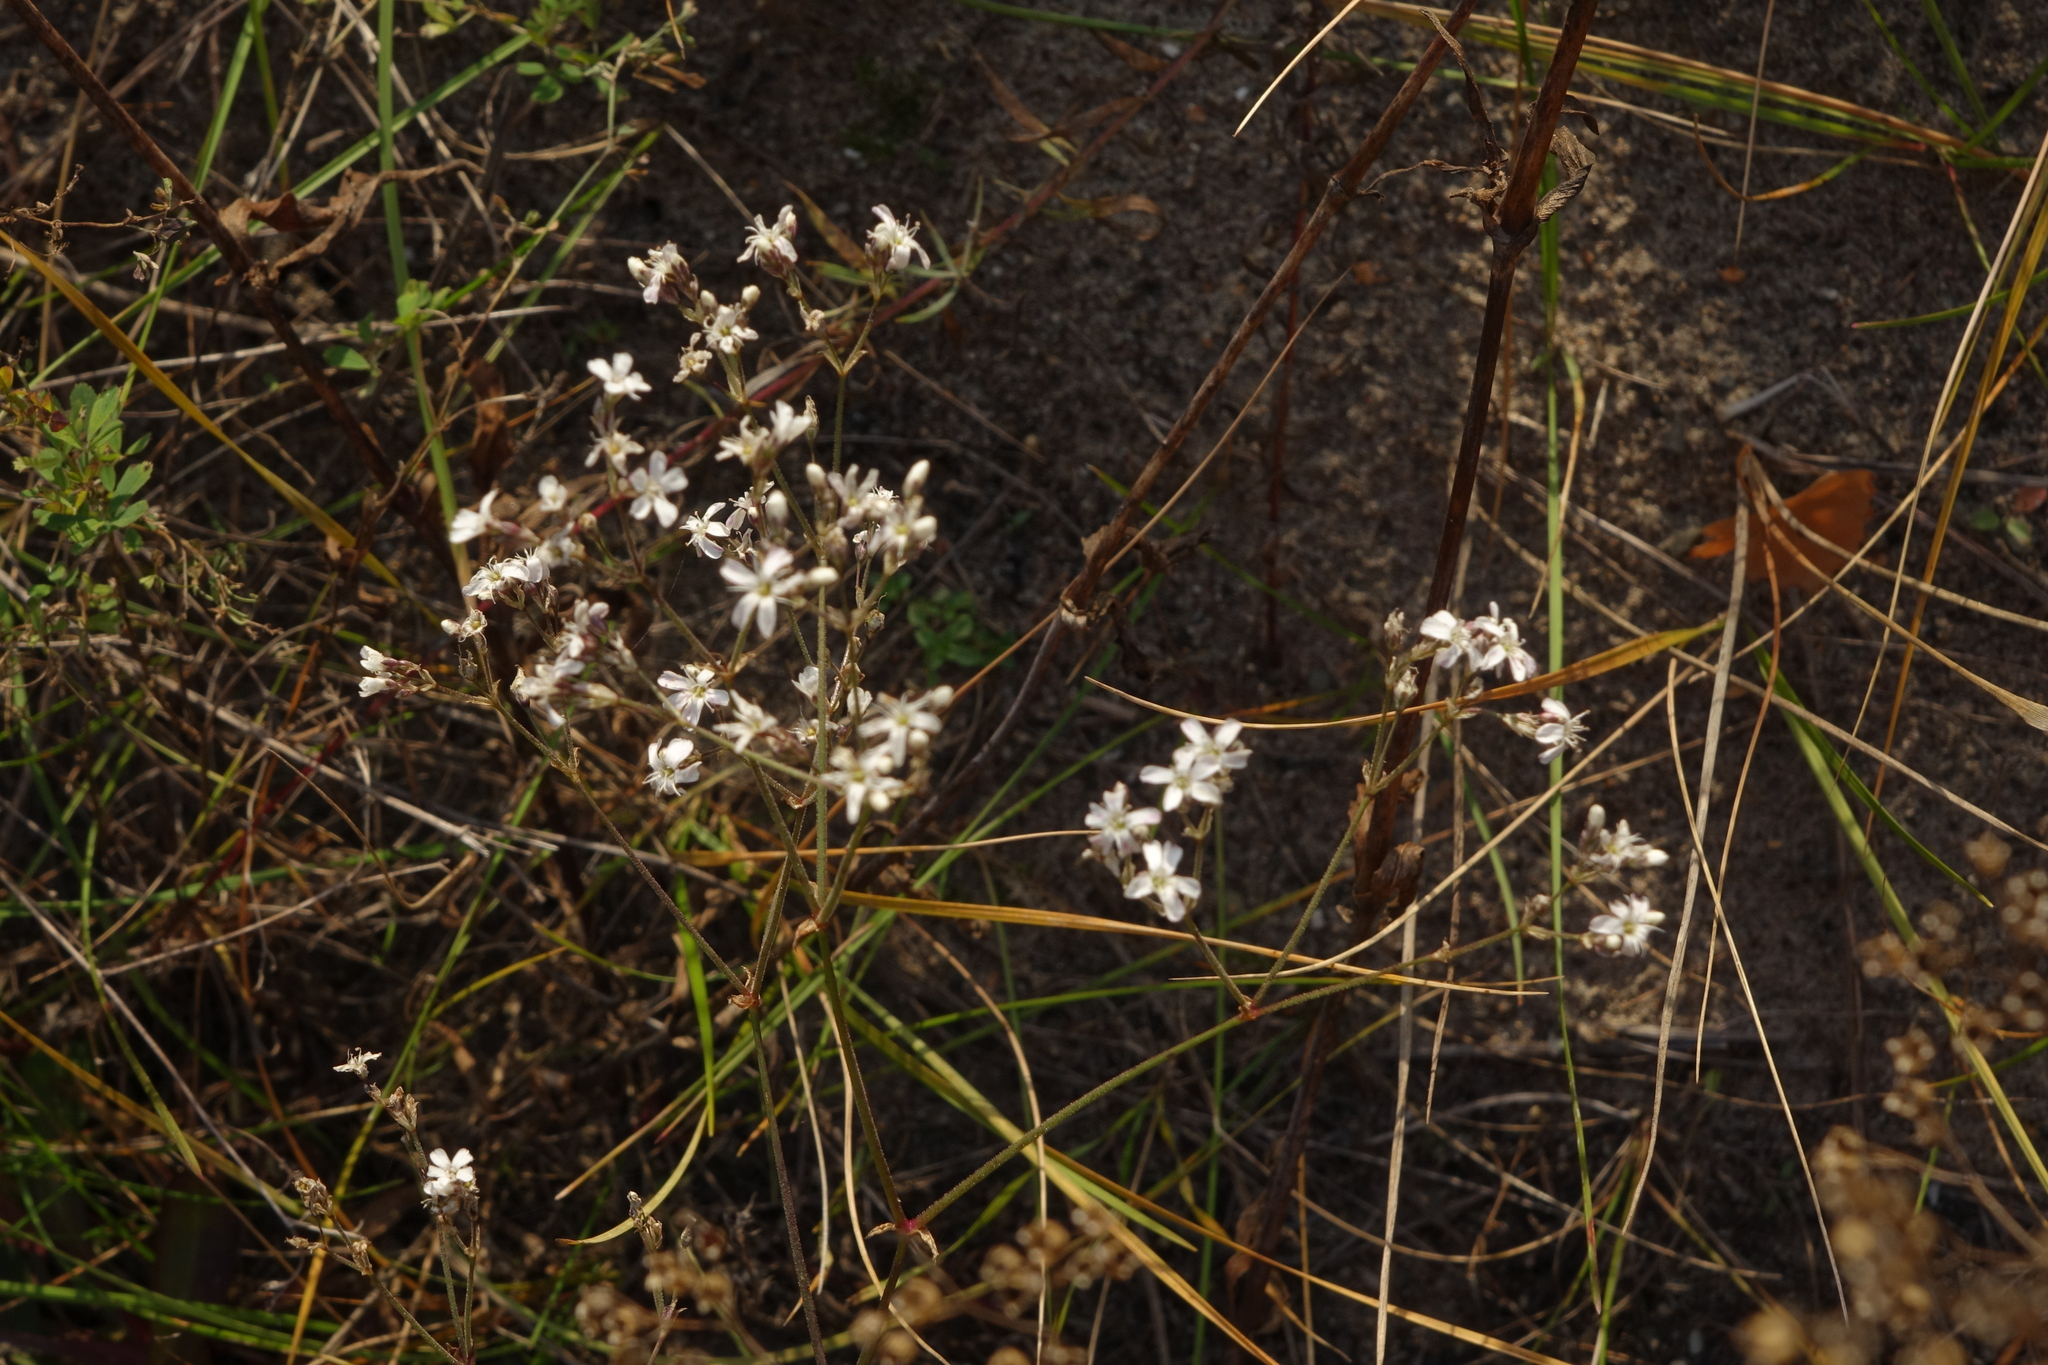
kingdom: Plantae
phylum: Tracheophyta
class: Magnoliopsida
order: Caryophyllales
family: Caryophyllaceae
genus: Gypsophila
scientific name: Gypsophila altissima
